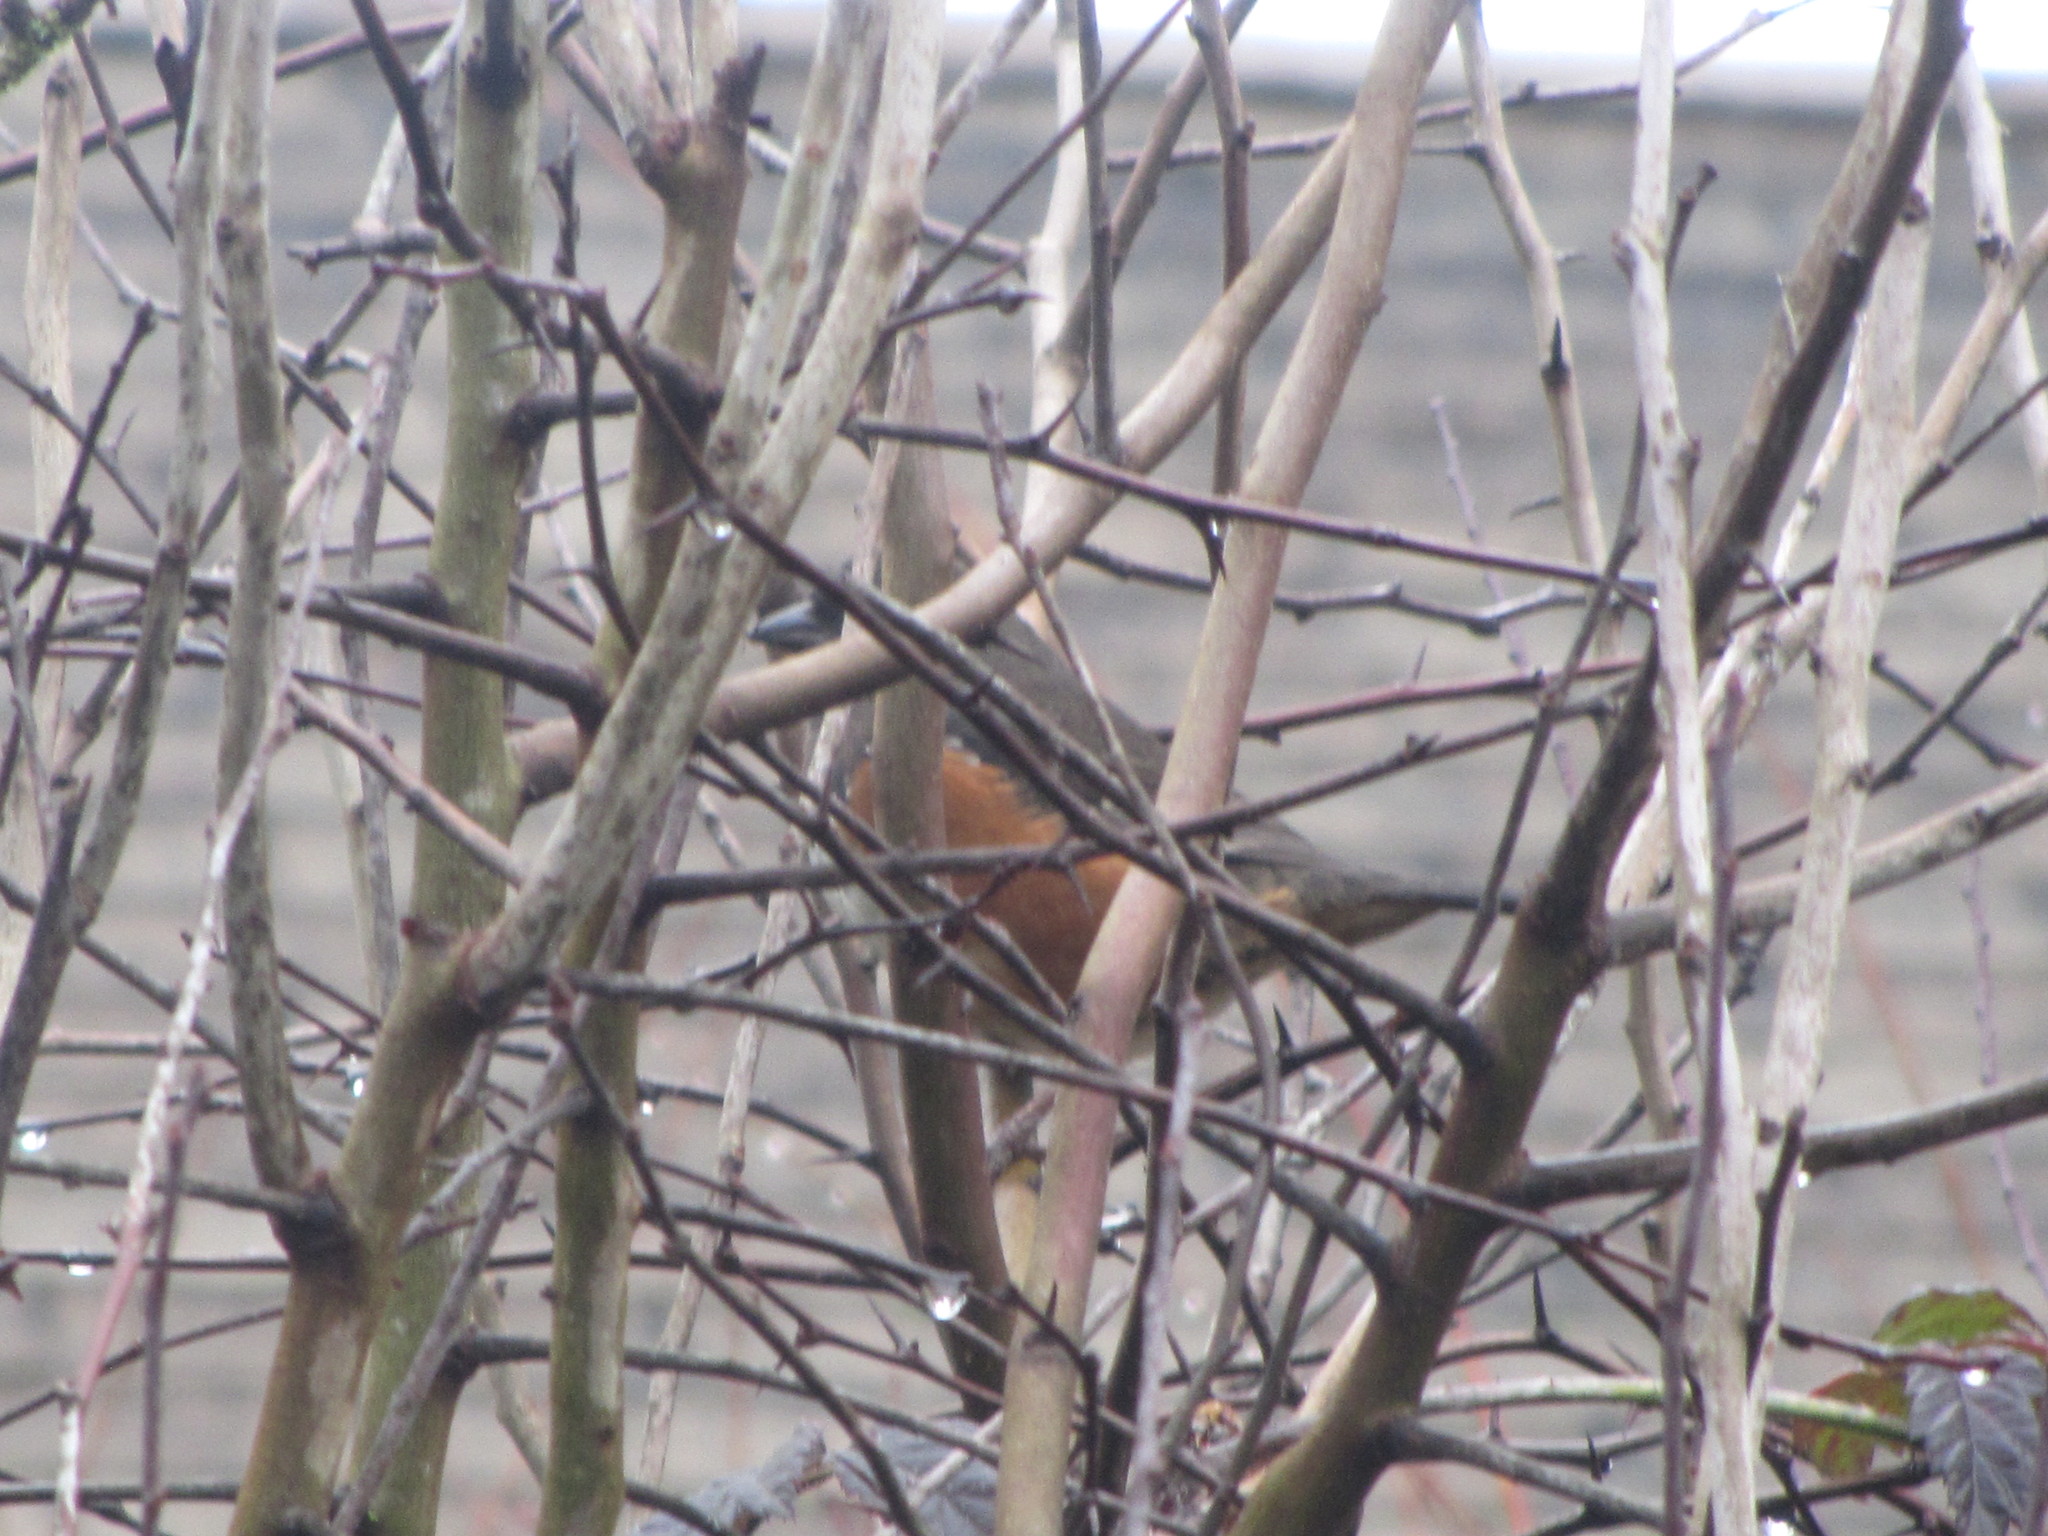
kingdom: Animalia
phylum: Chordata
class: Aves
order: Passeriformes
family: Turdidae
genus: Turdus
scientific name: Turdus migratorius
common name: American robin
